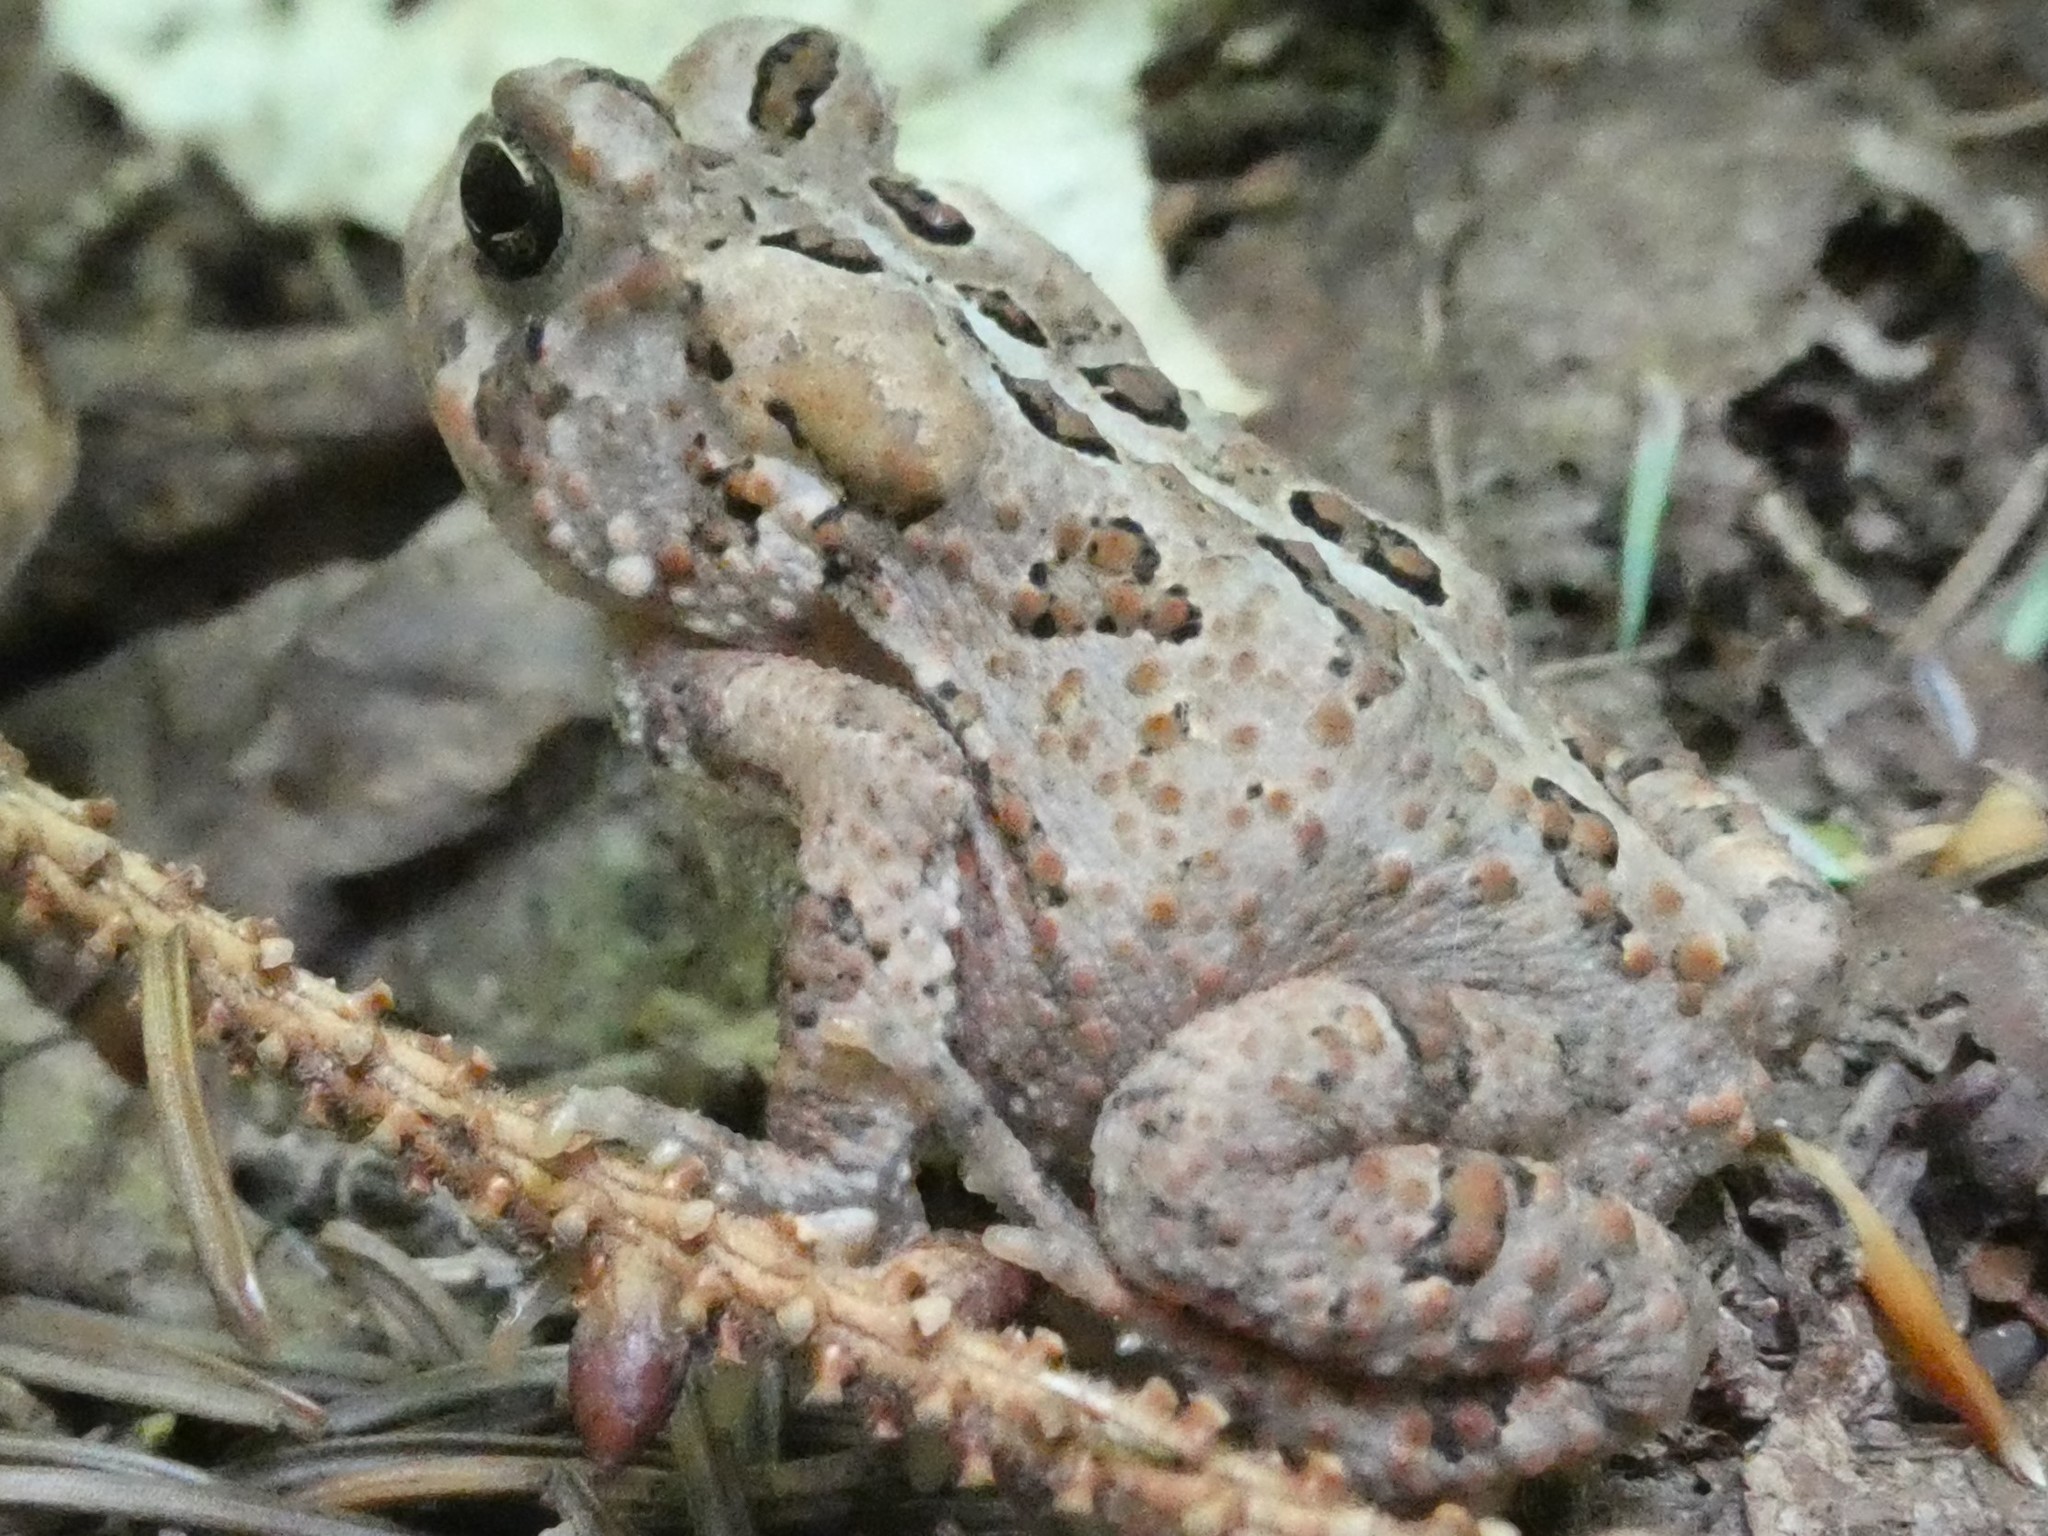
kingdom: Animalia
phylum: Chordata
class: Amphibia
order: Anura
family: Bufonidae
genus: Anaxyrus
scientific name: Anaxyrus americanus
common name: American toad
